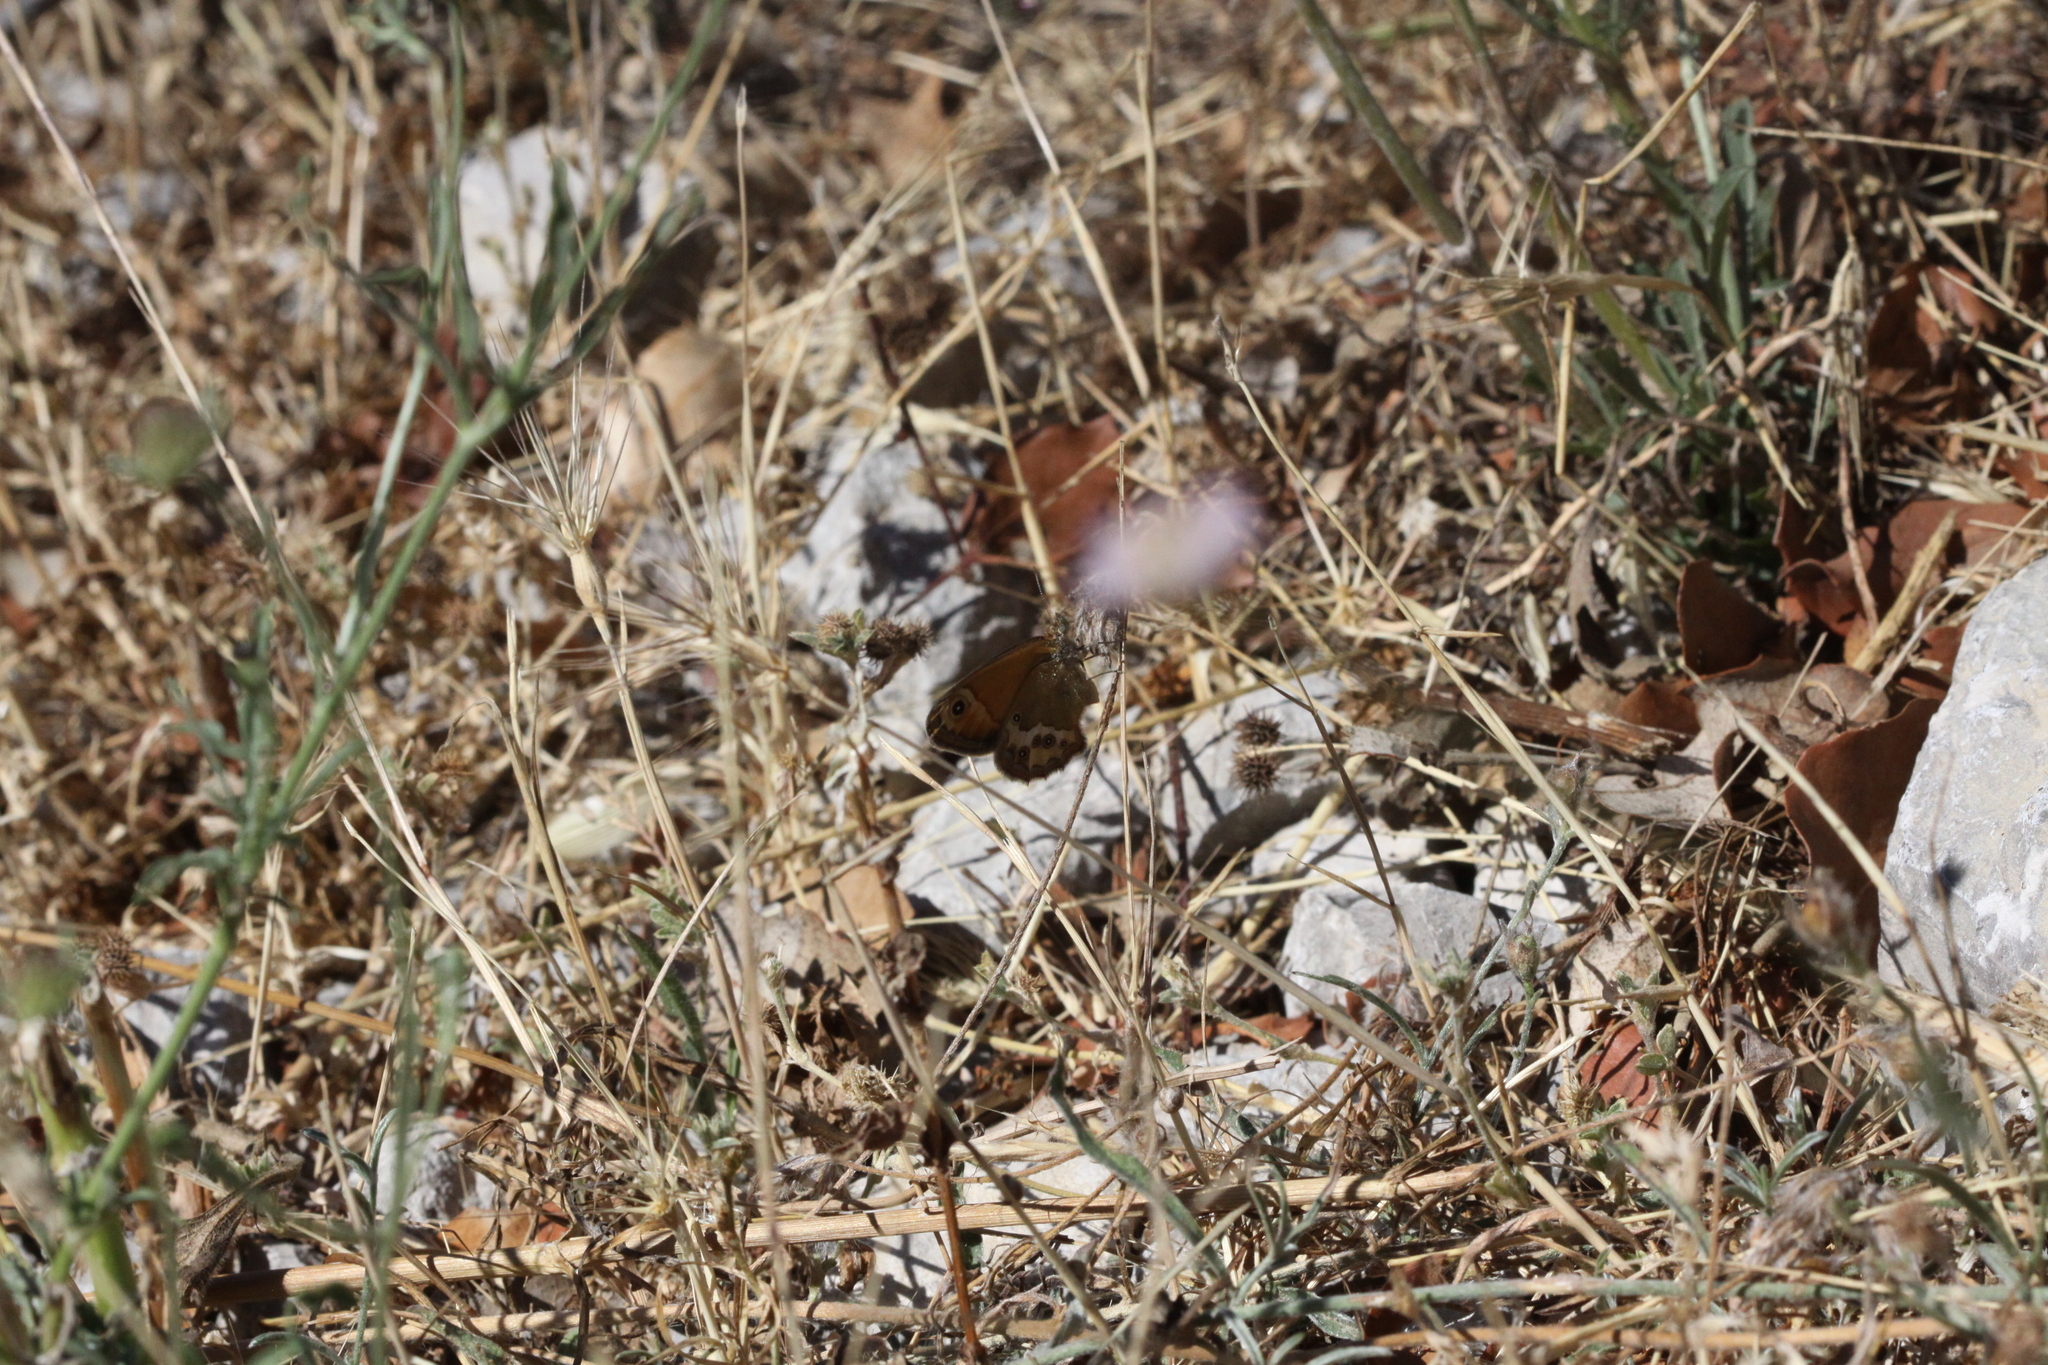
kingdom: Animalia
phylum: Arthropoda
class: Insecta
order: Lepidoptera
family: Nymphalidae
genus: Coenonympha
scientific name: Coenonympha dorus
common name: Dusky heath
